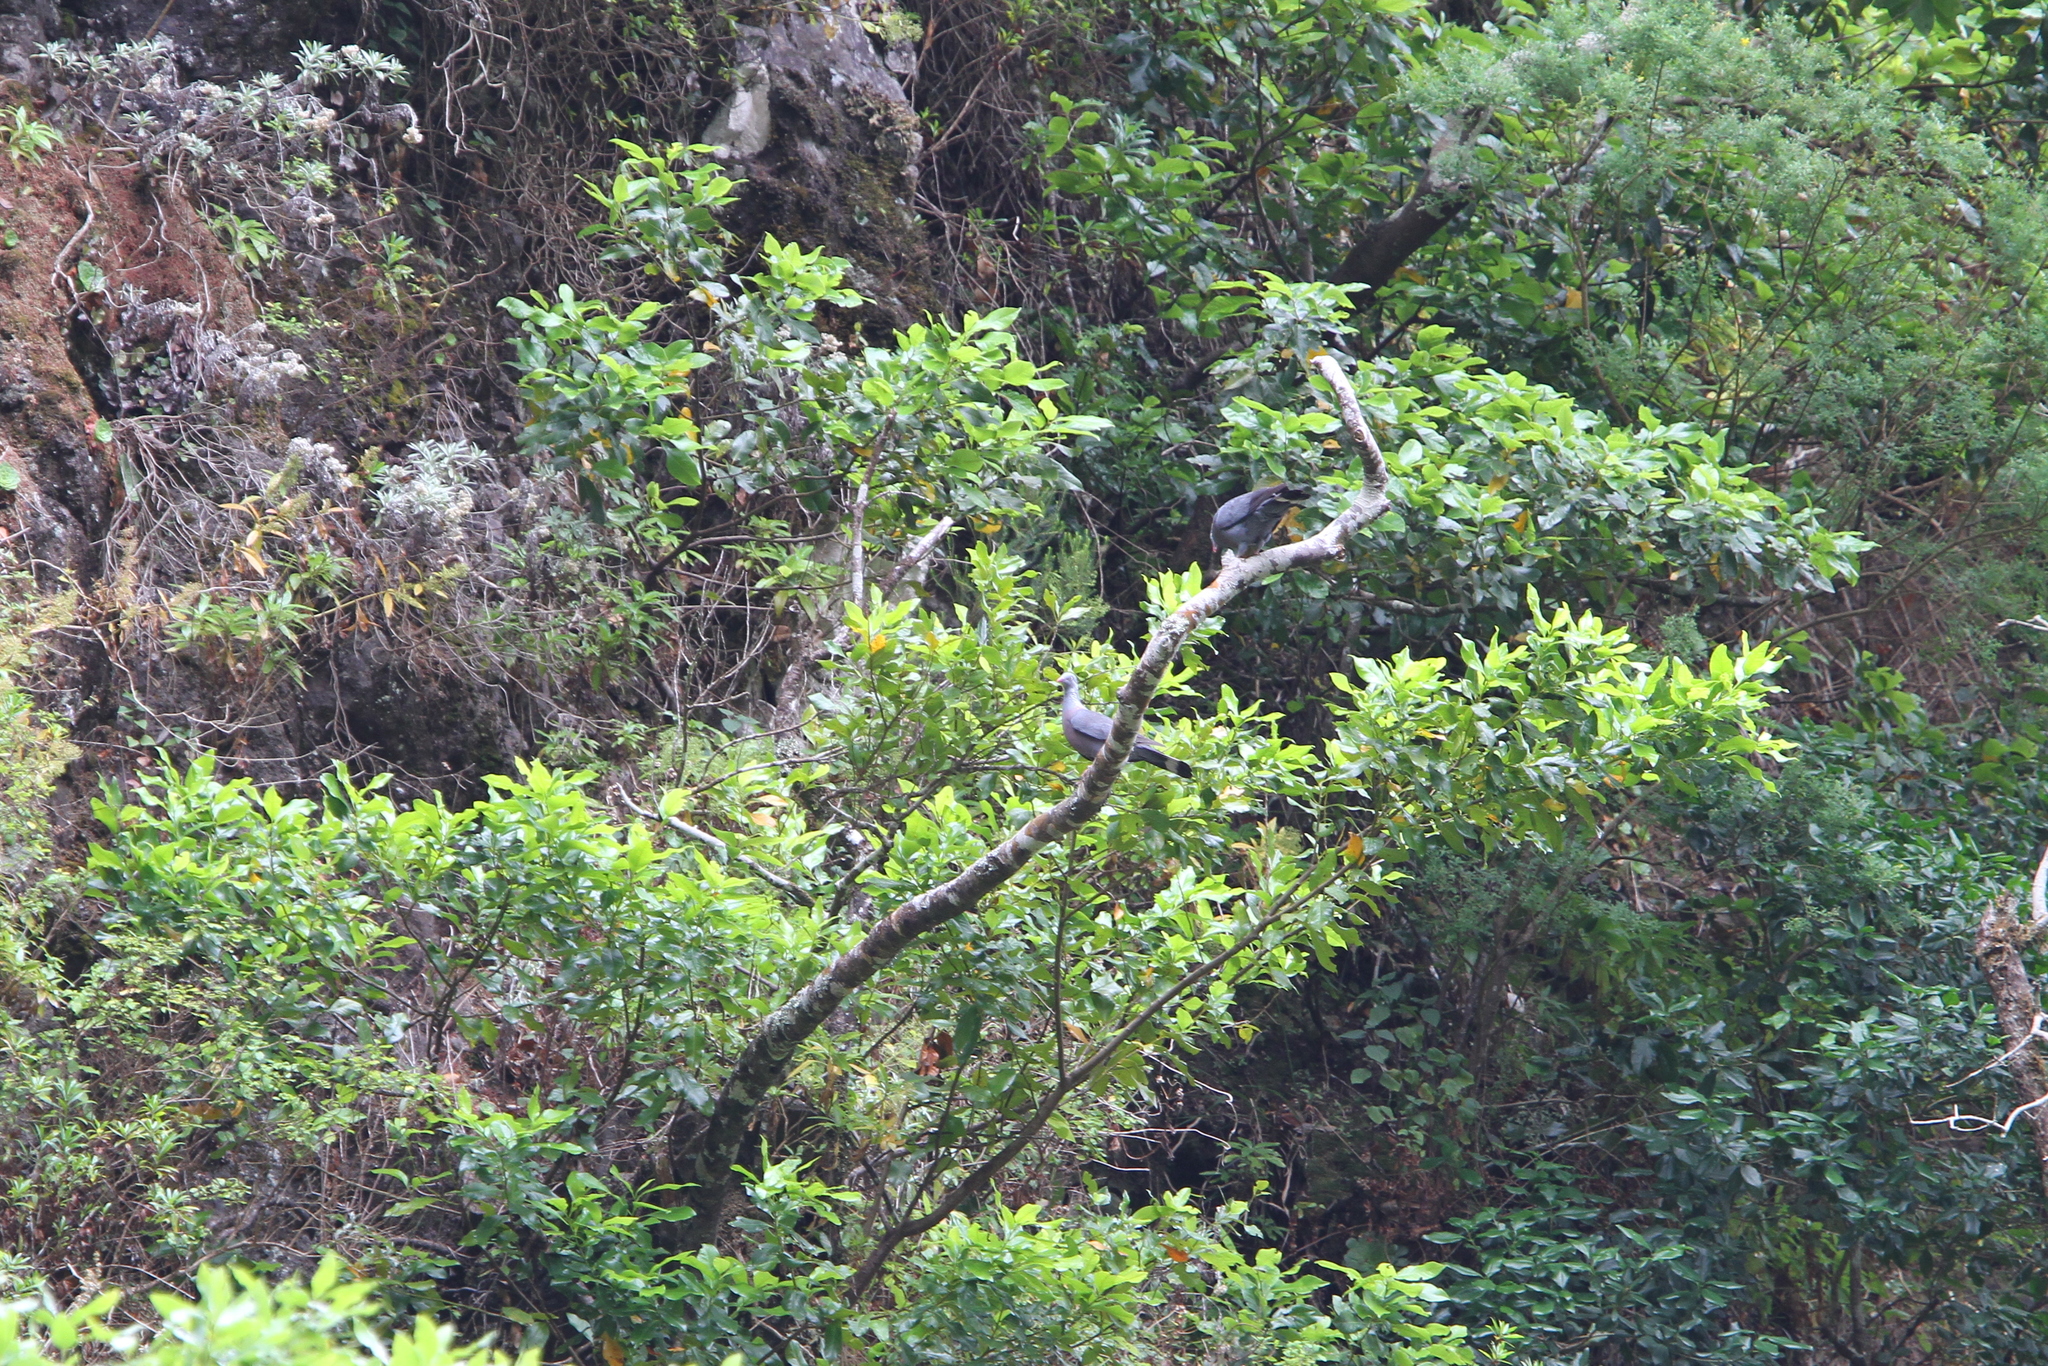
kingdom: Animalia
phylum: Chordata
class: Aves
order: Columbiformes
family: Columbidae
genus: Columba
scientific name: Columba trocaz
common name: Trocaz pigeon
